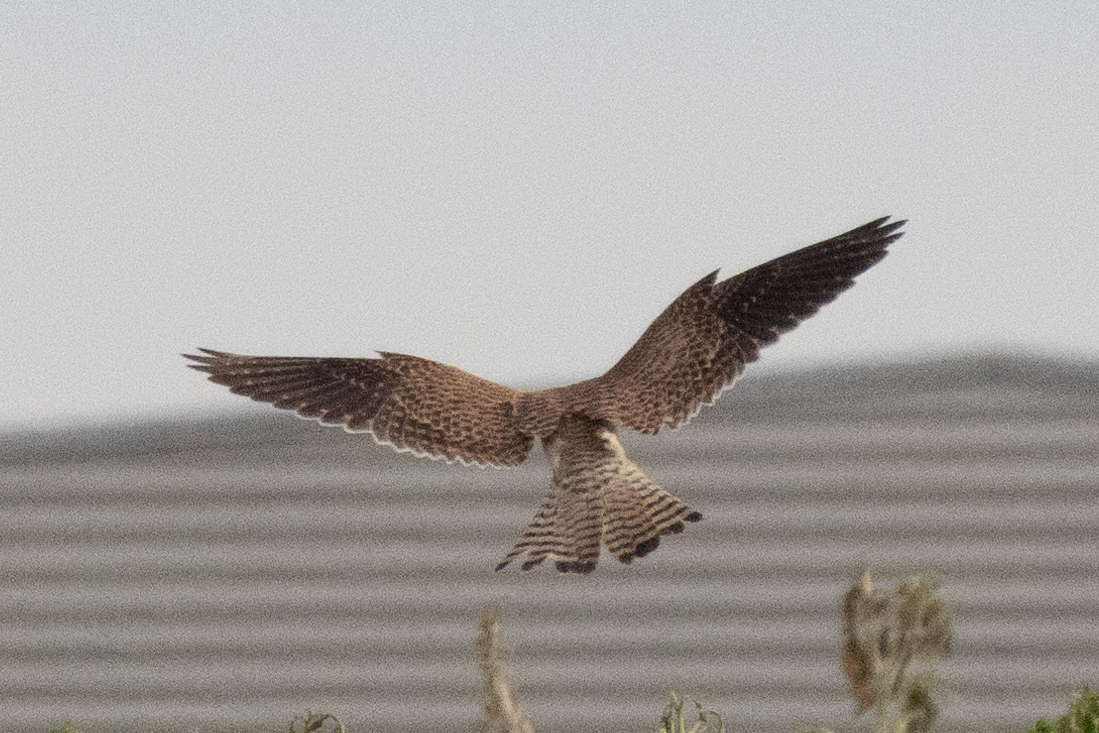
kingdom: Animalia
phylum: Chordata
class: Aves
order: Falconiformes
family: Falconidae
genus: Falco
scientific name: Falco tinnunculus
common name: Common kestrel
